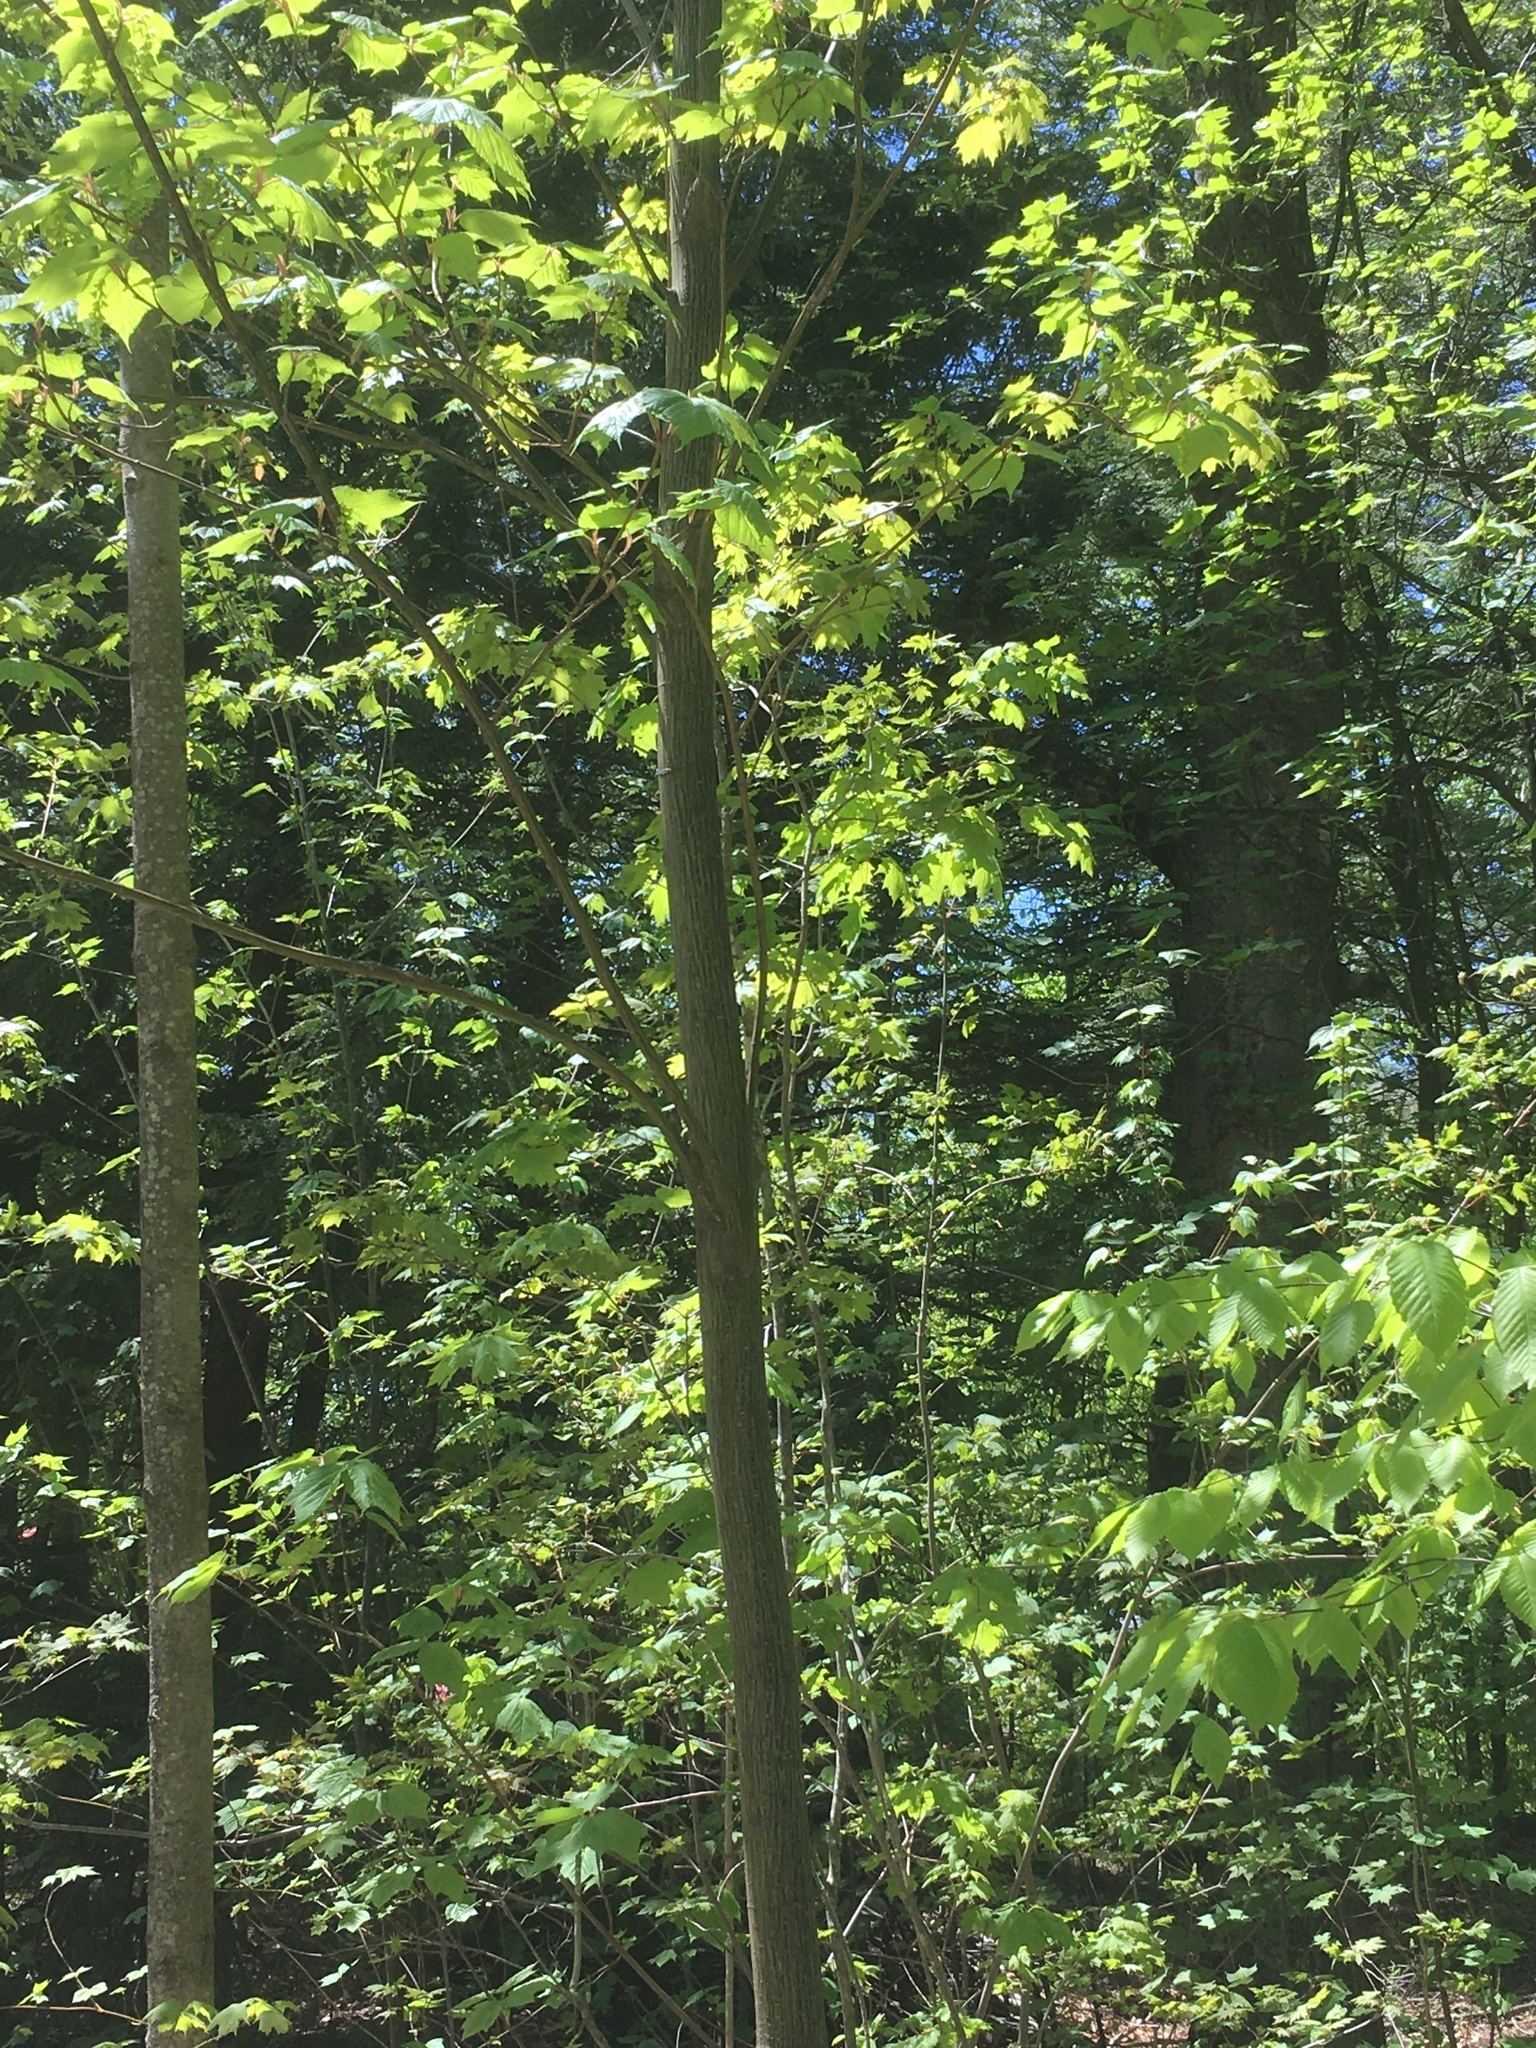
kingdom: Plantae
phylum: Tracheophyta
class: Magnoliopsida
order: Sapindales
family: Sapindaceae
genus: Acer
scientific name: Acer pensylvanicum
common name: Moosewood
